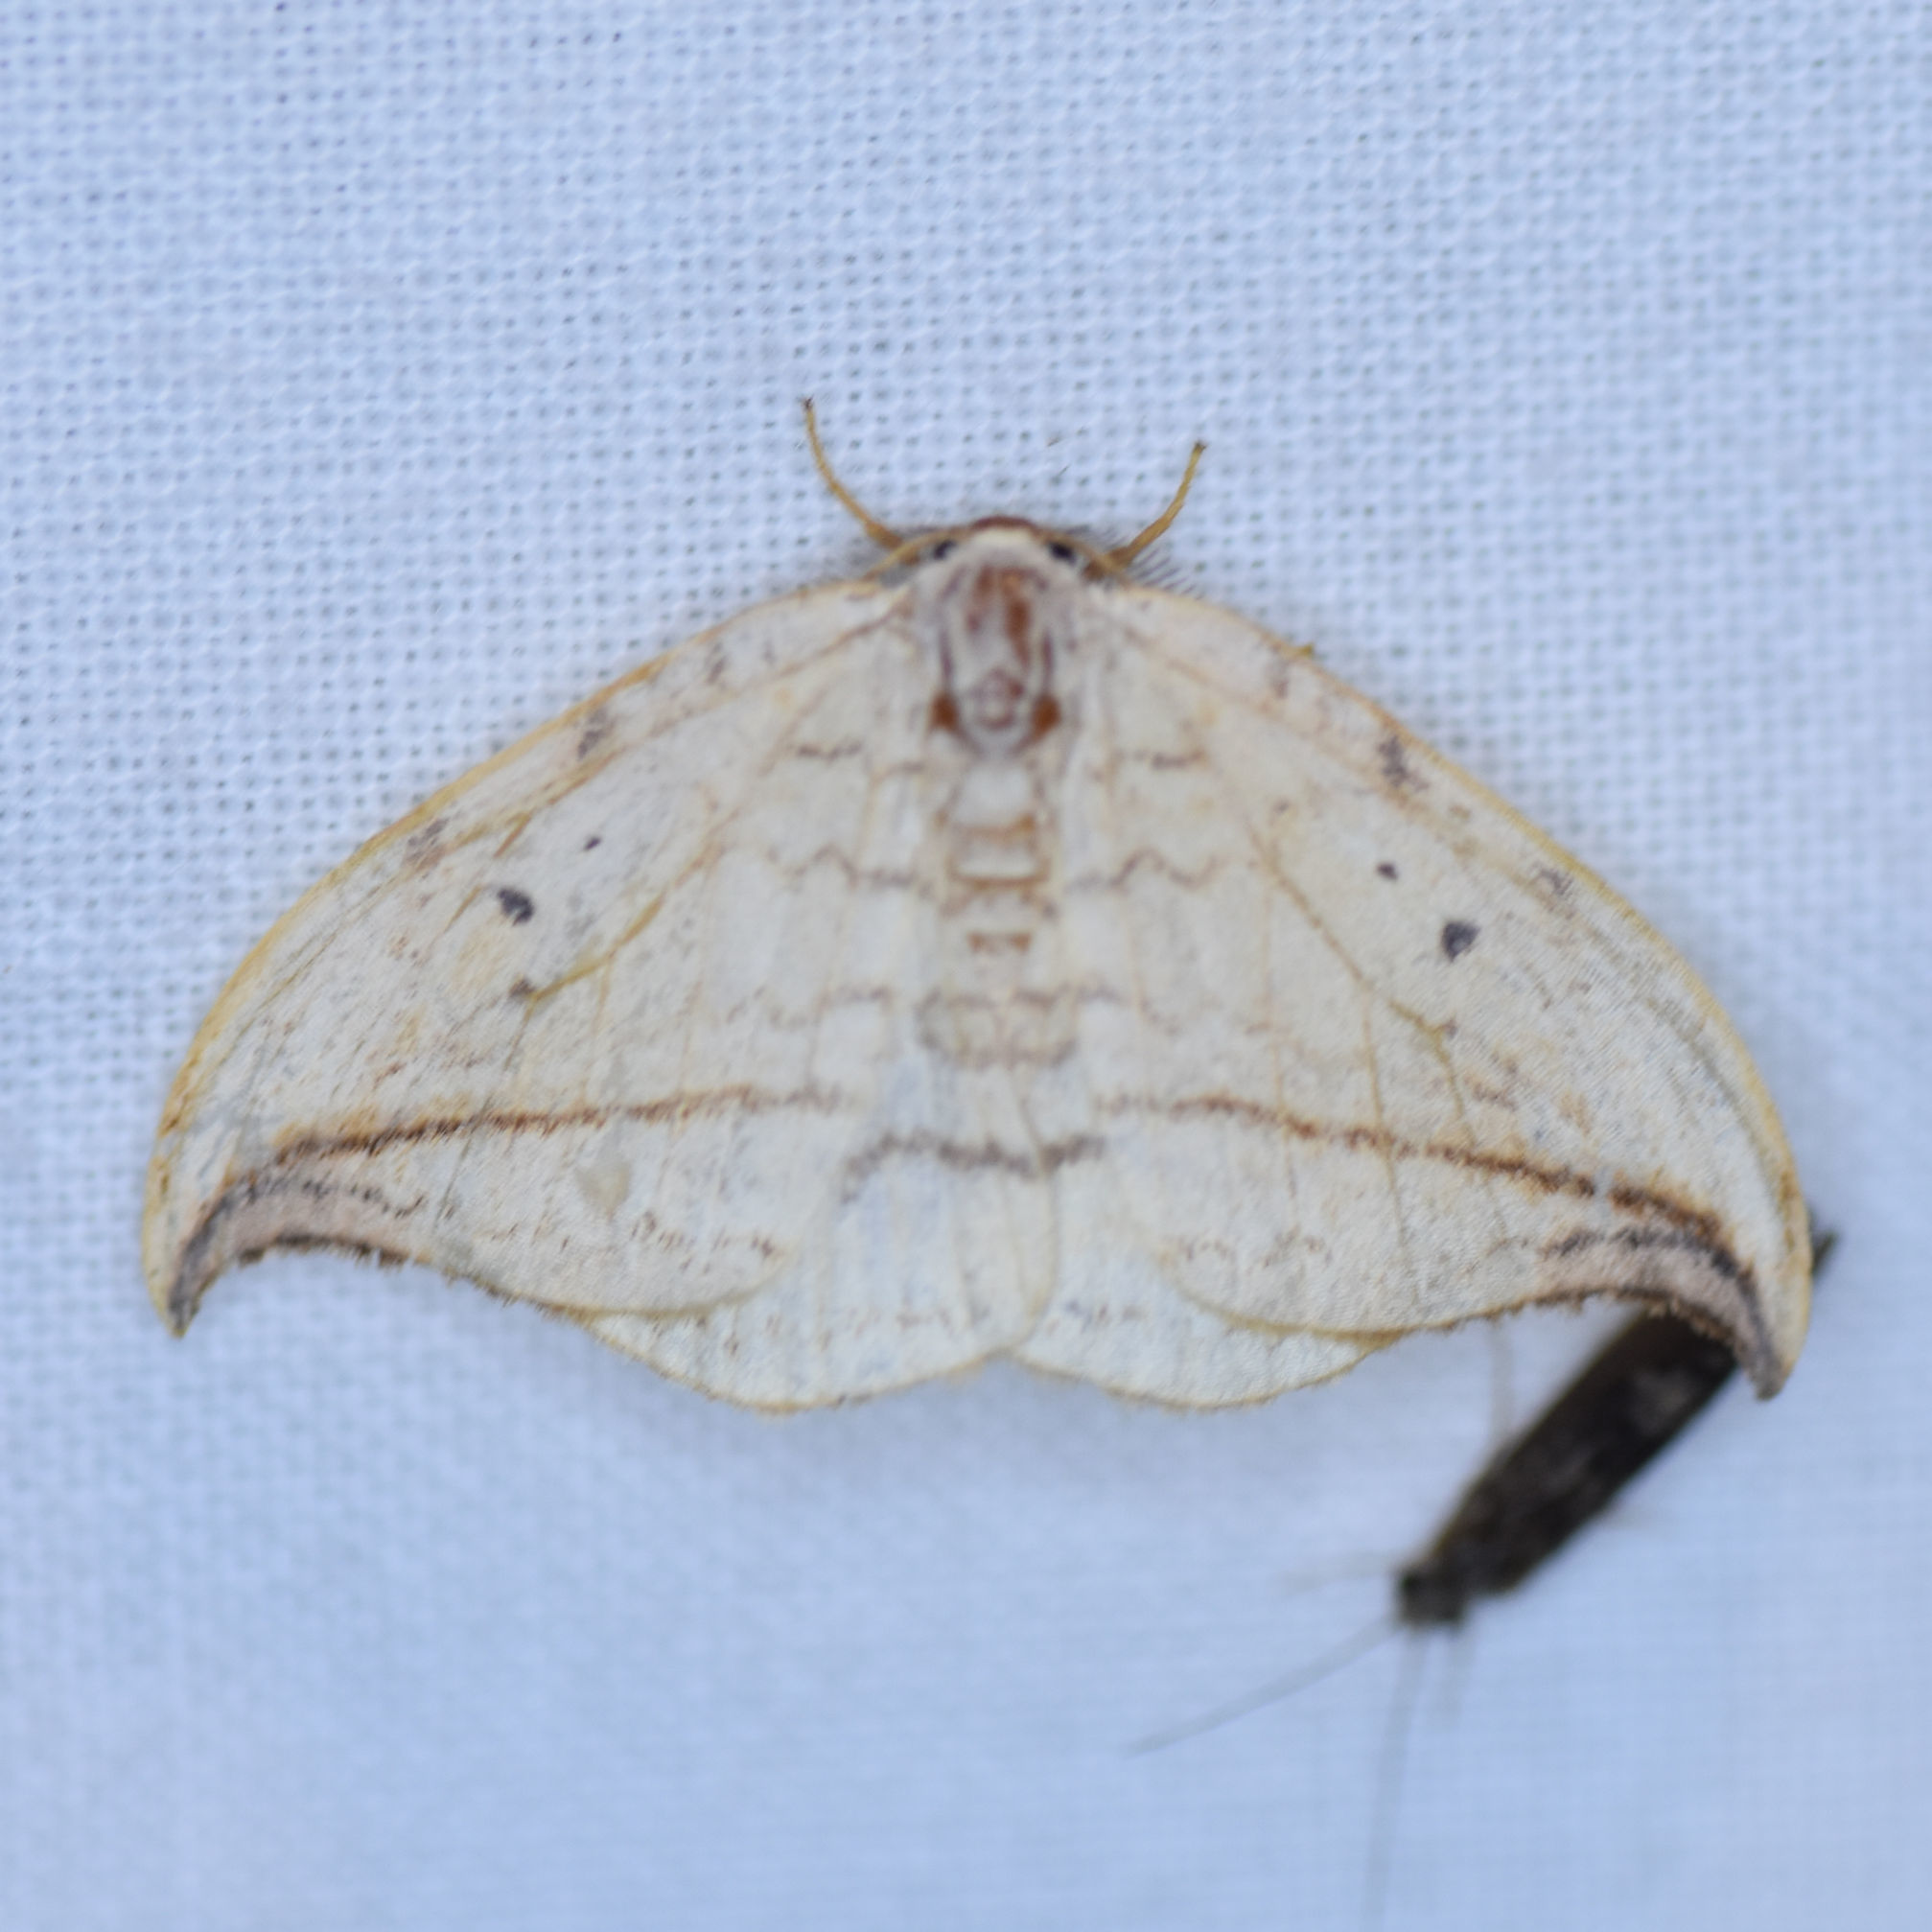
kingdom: Animalia
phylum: Arthropoda
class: Insecta
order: Lepidoptera
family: Drepanidae
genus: Drepana
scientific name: Drepana arcuata
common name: Arched hooktip moth
